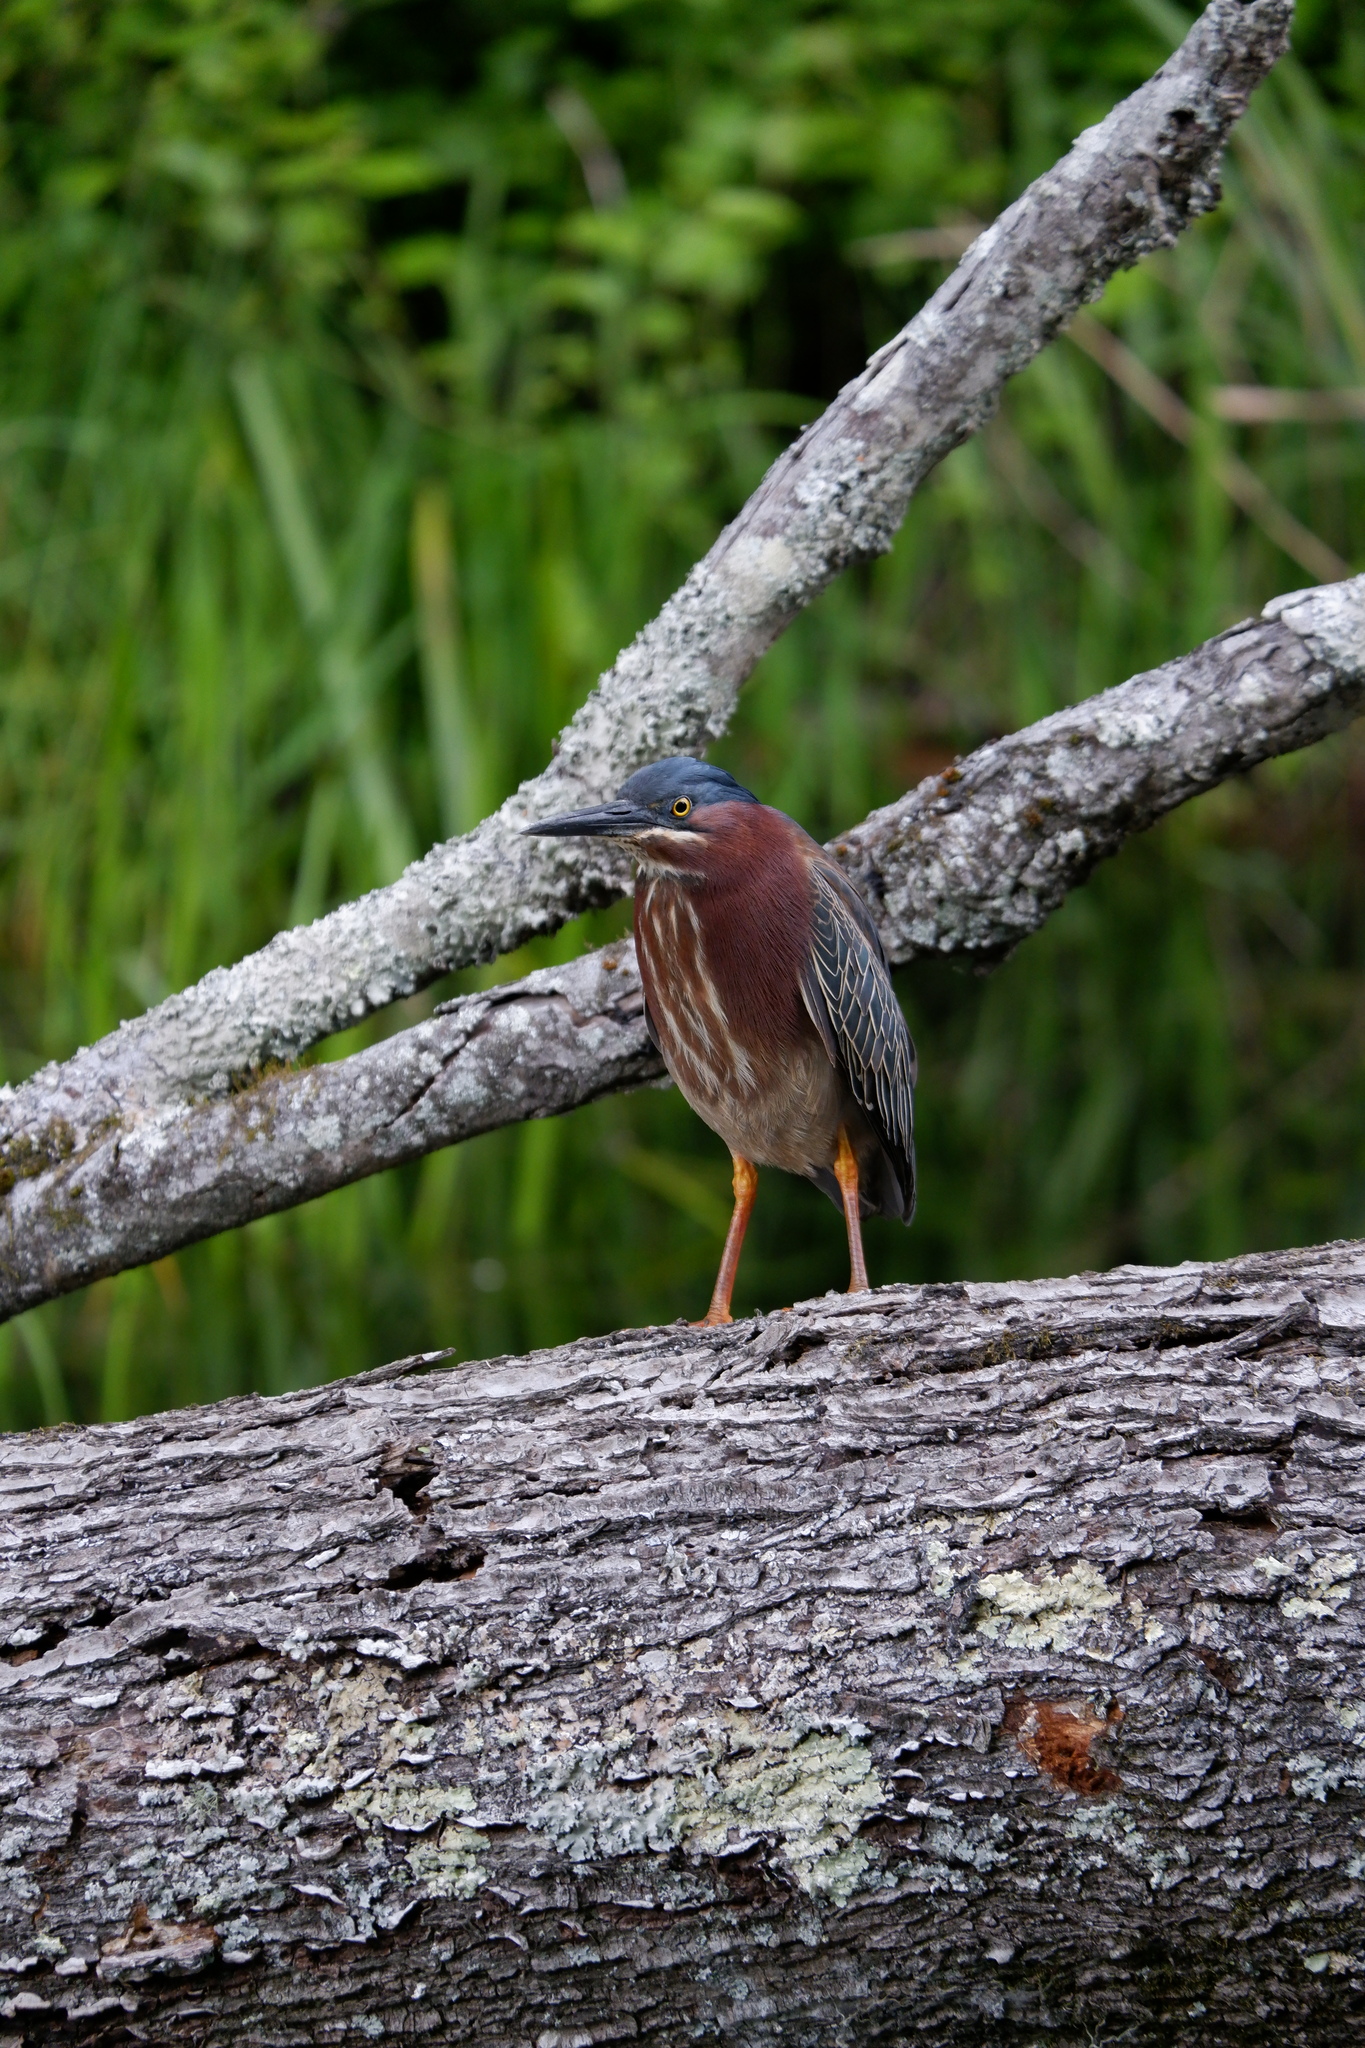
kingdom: Animalia
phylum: Chordata
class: Aves
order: Pelecaniformes
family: Ardeidae
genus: Butorides
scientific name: Butorides virescens
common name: Green heron
